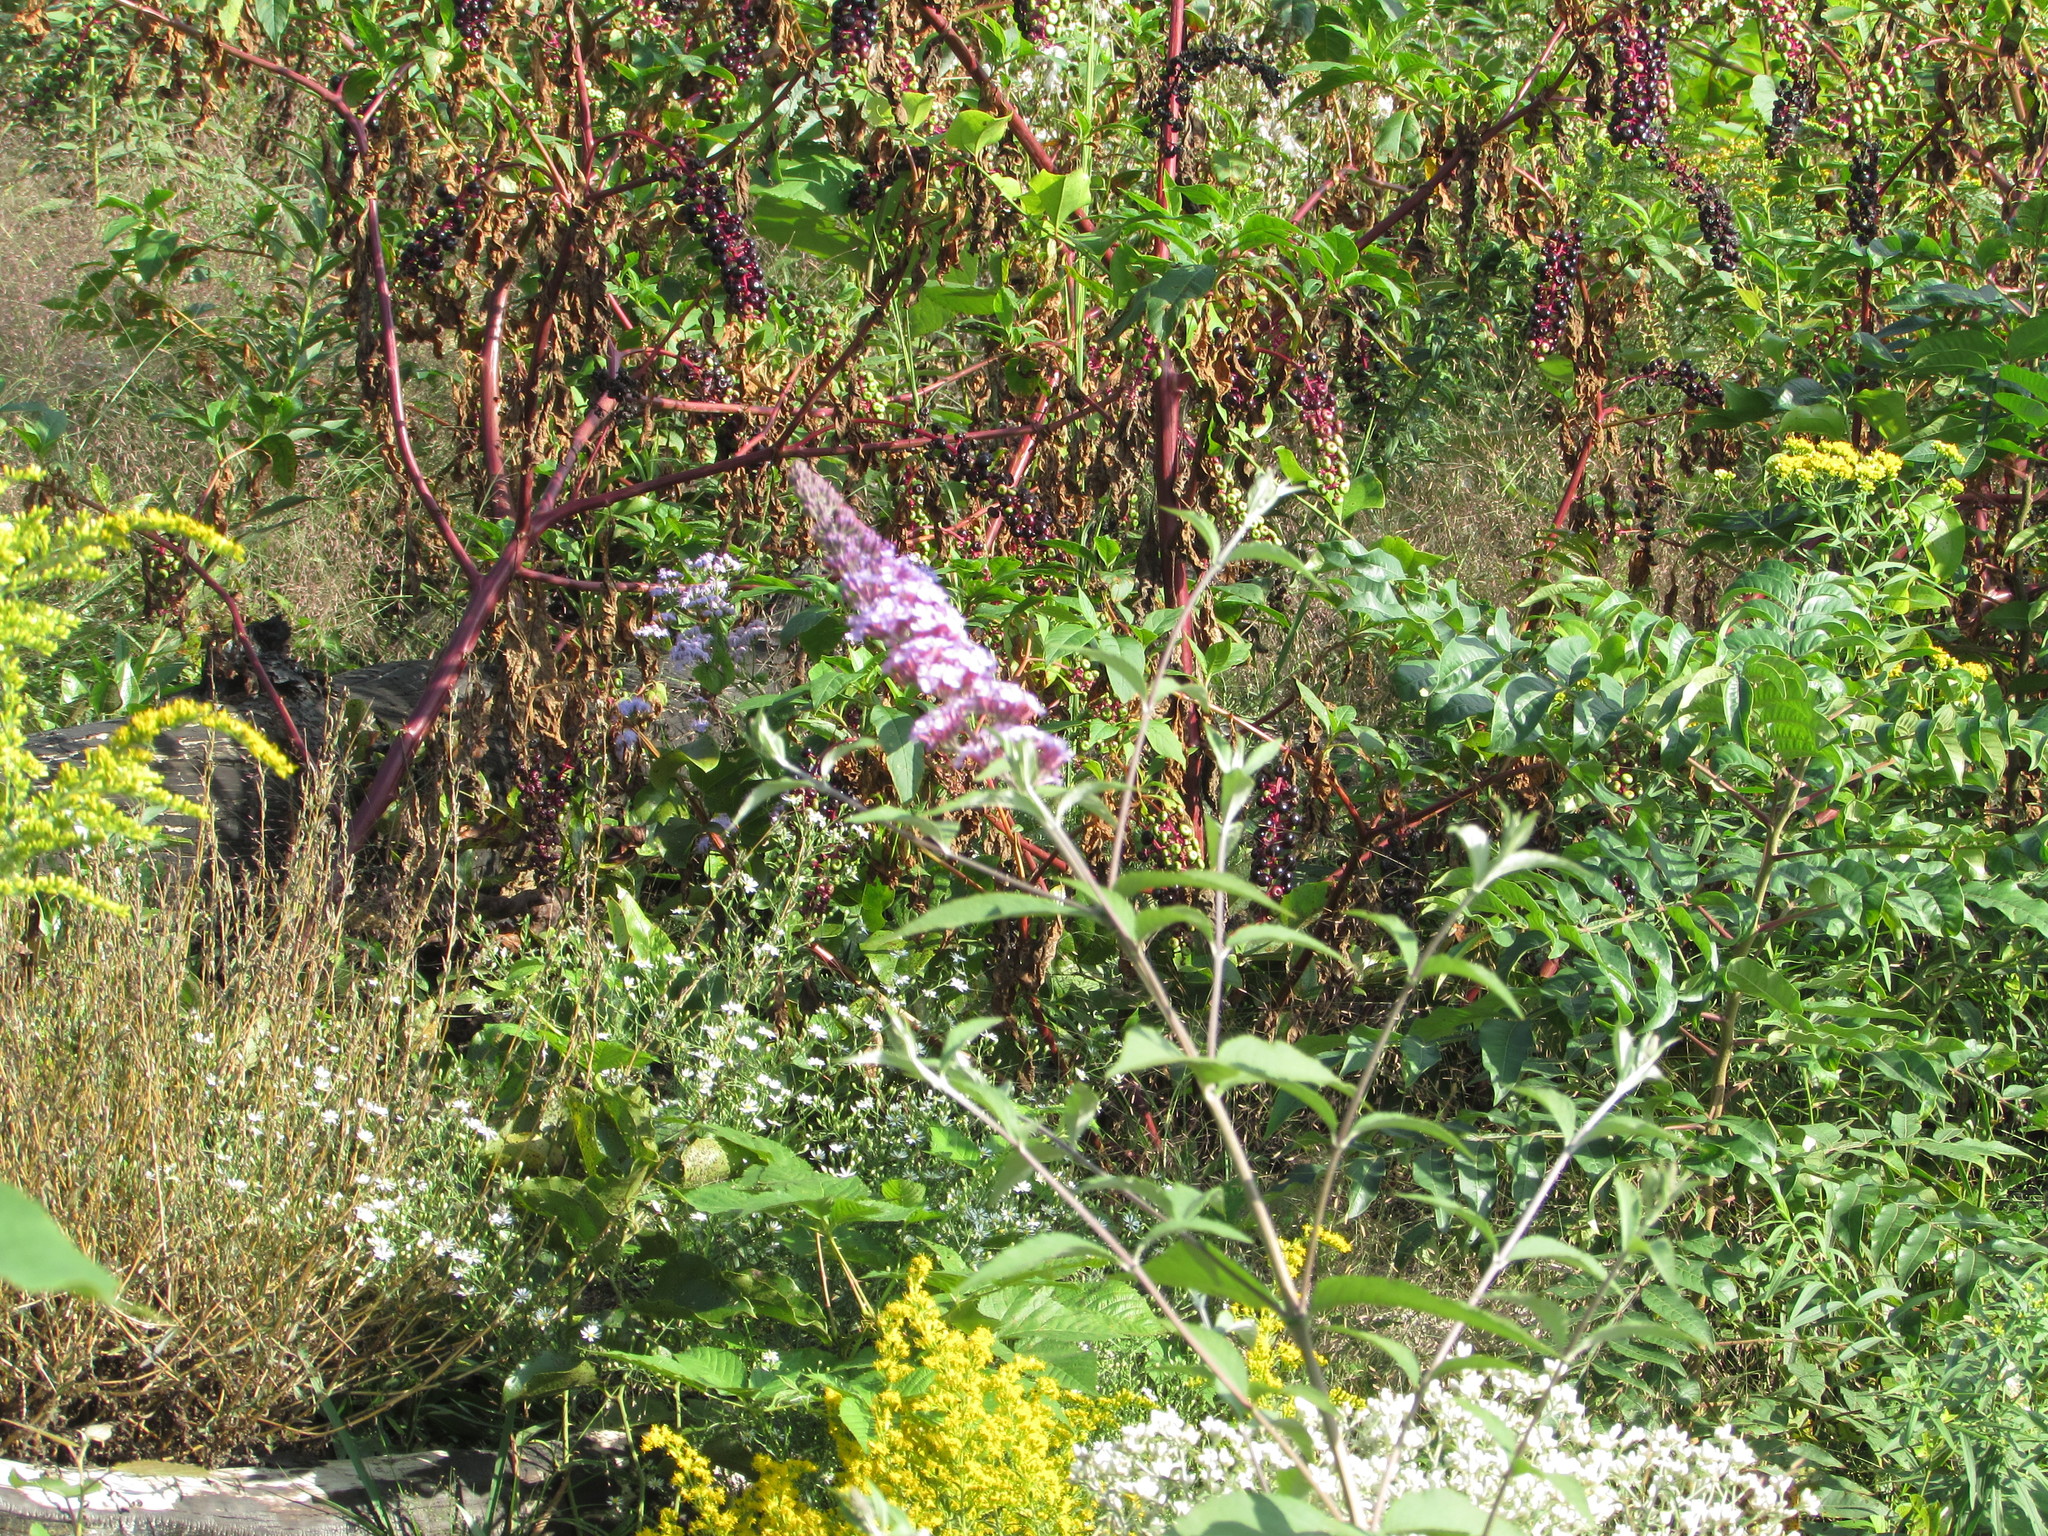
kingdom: Plantae
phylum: Tracheophyta
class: Magnoliopsida
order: Lamiales
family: Scrophulariaceae
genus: Buddleja
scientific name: Buddleja davidii
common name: Butterfly-bush
